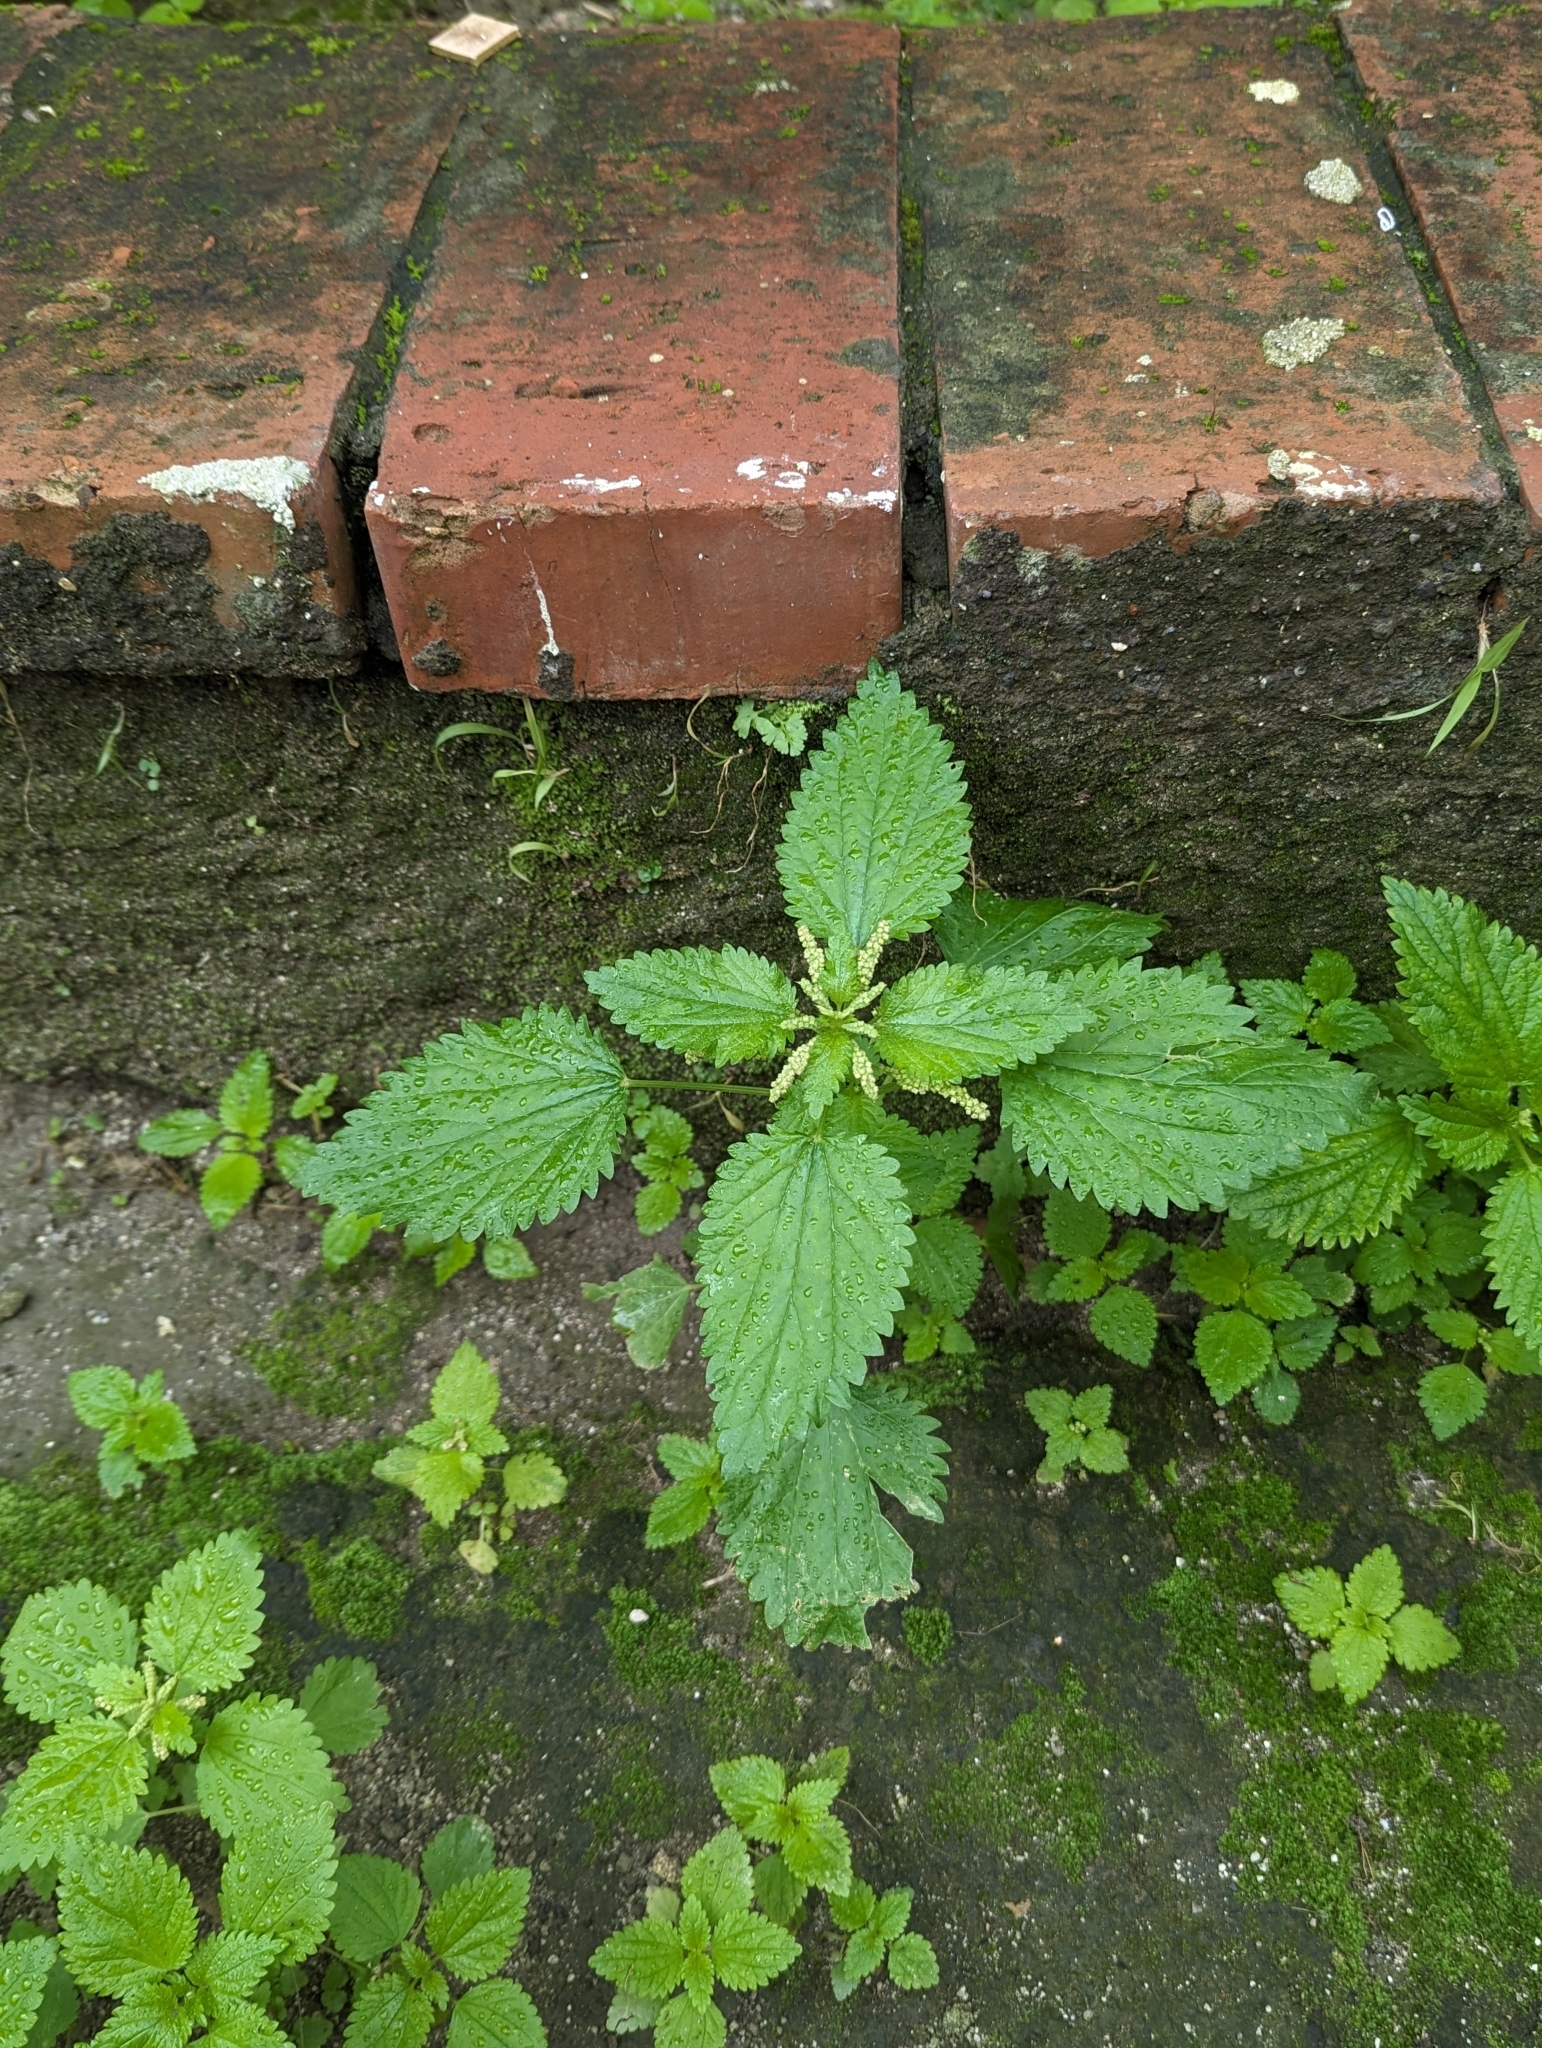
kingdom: Plantae
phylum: Tracheophyta
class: Magnoliopsida
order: Rosales
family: Urticaceae
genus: Urtica
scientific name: Urtica membranacea
